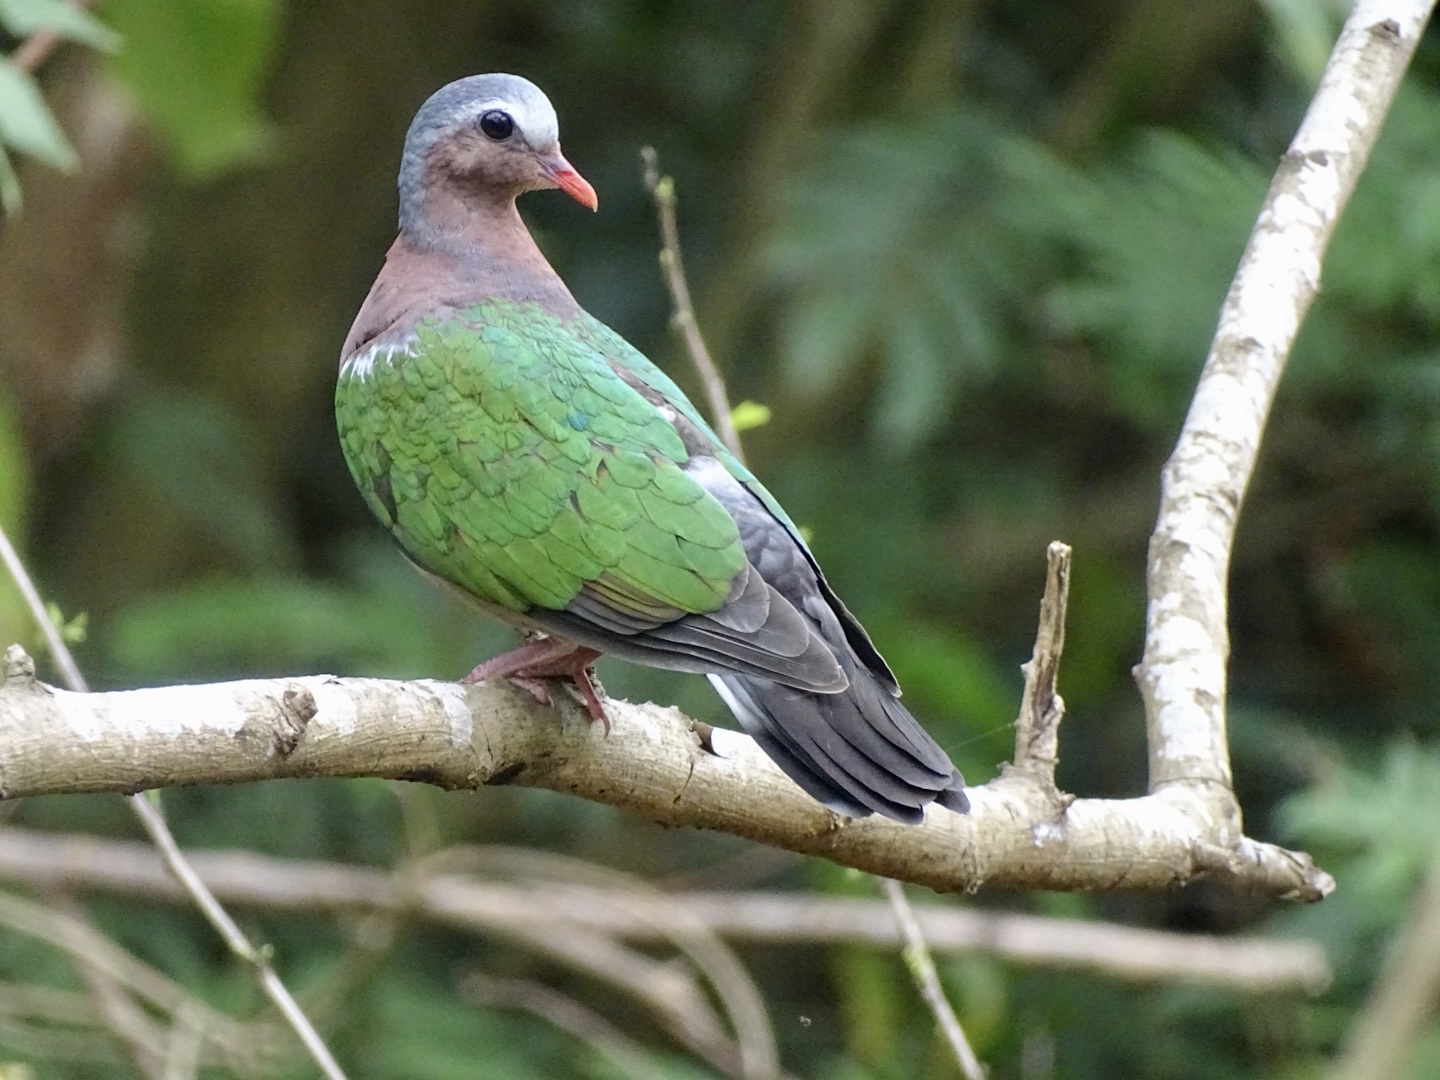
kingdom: Animalia
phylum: Chordata
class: Aves
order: Columbiformes
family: Columbidae
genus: Chalcophaps
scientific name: Chalcophaps indica
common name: Common emerald dove
